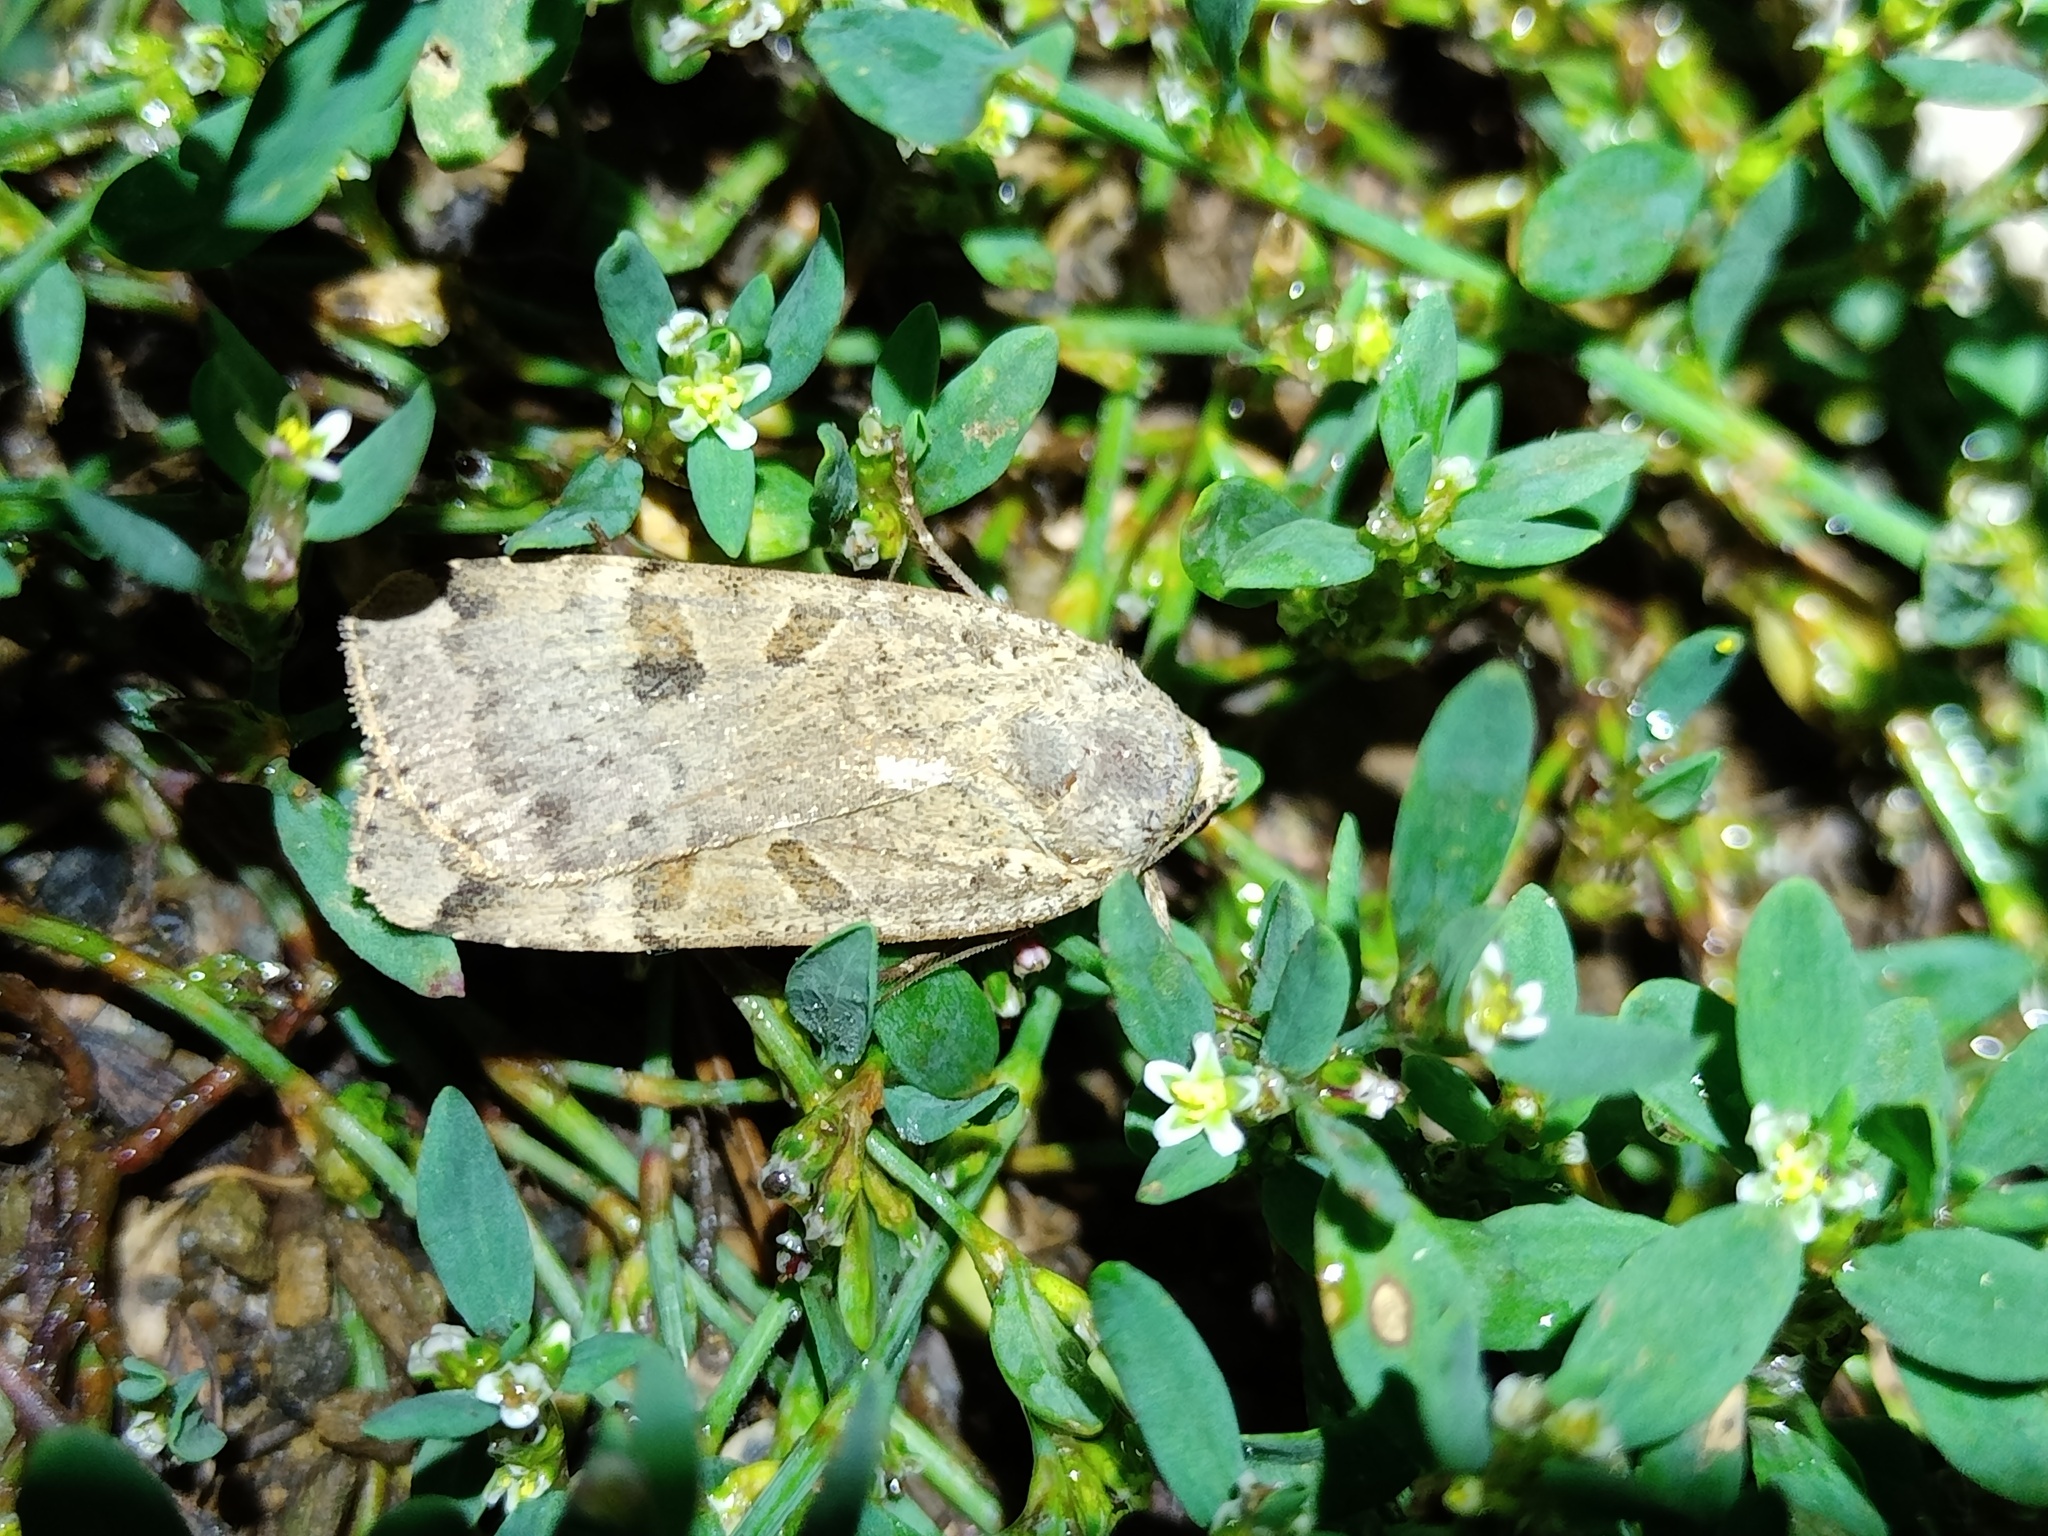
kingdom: Animalia
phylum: Arthropoda
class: Insecta
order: Lepidoptera
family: Noctuidae
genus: Noctua
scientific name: Noctua interposita
